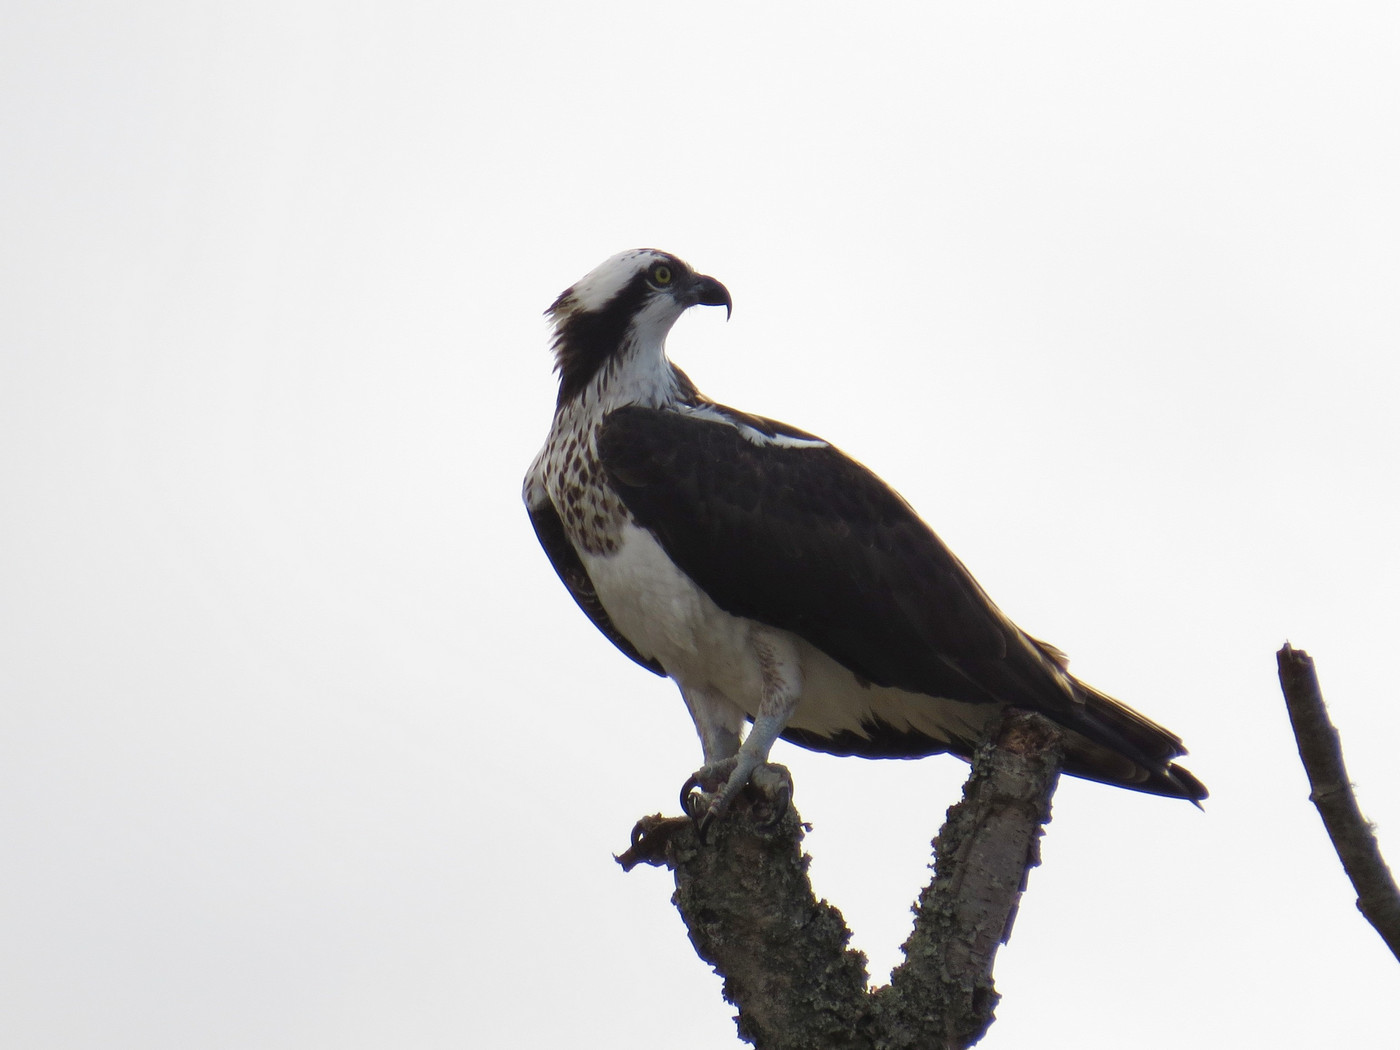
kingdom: Animalia
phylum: Chordata
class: Aves
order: Accipitriformes
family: Pandionidae
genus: Pandion
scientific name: Pandion haliaetus
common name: Osprey
